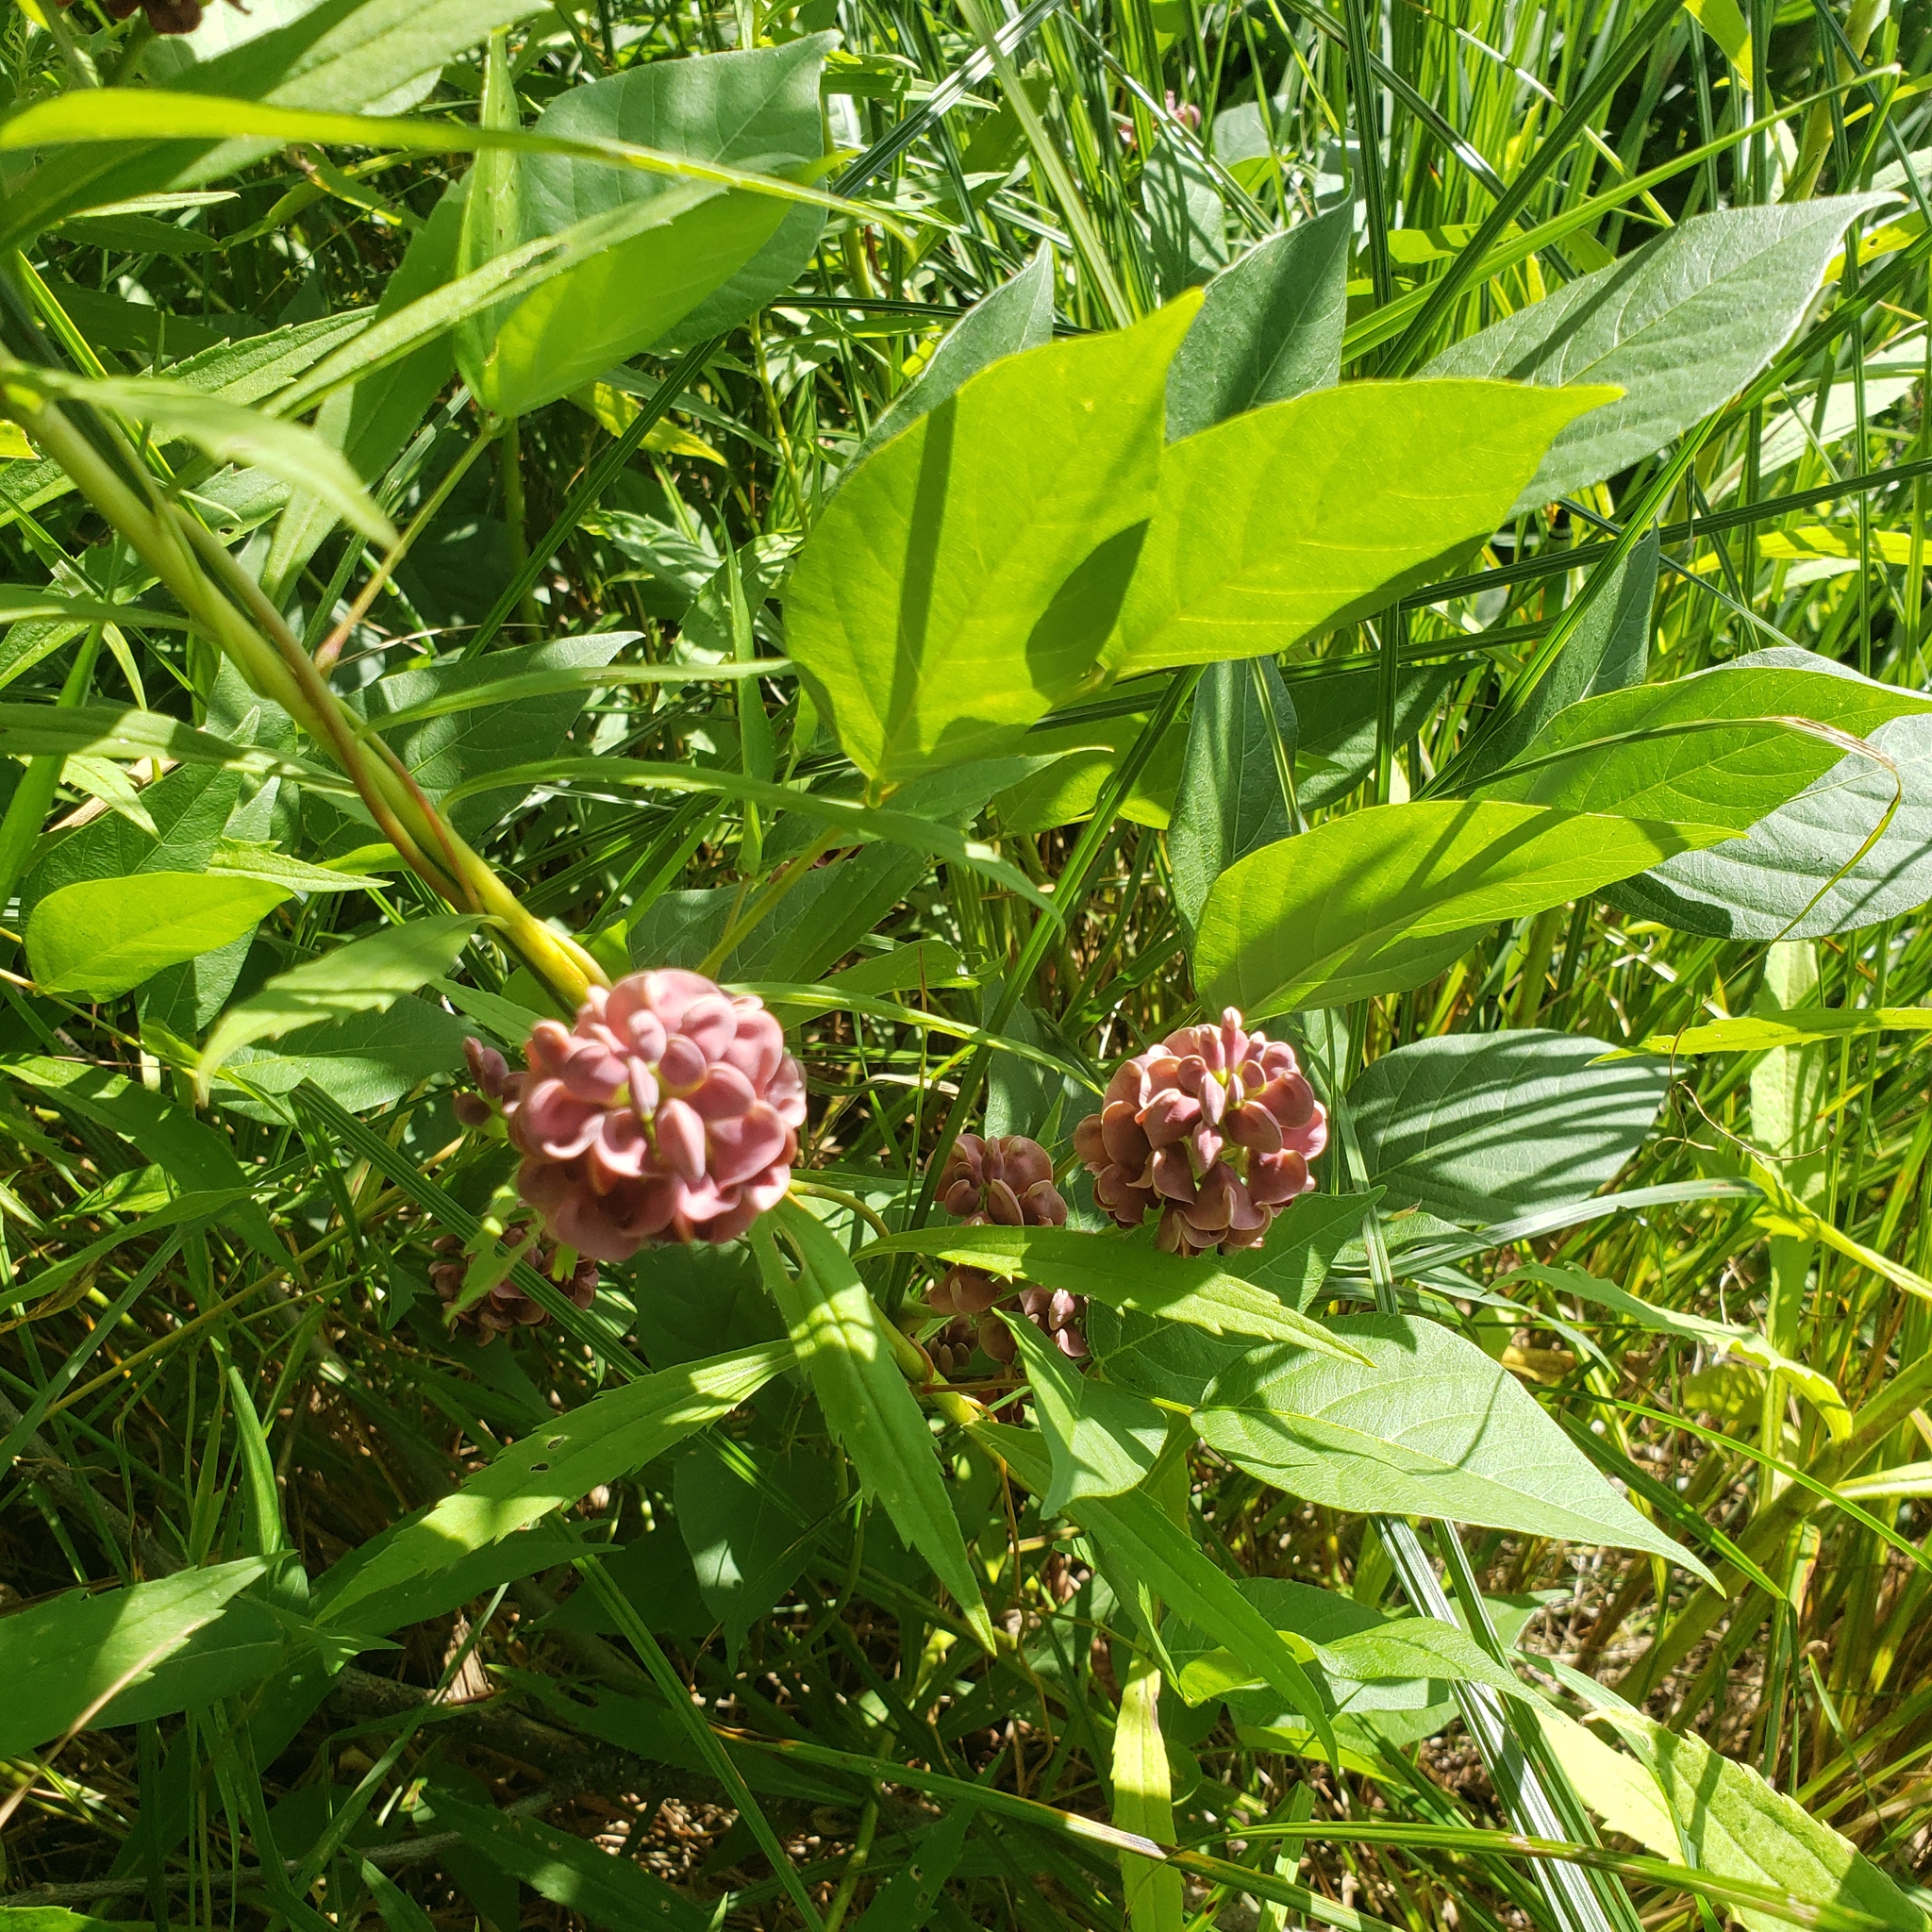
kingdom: Plantae
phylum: Tracheophyta
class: Magnoliopsida
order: Fabales
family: Fabaceae
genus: Apios
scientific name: Apios americana
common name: American potato-bean
